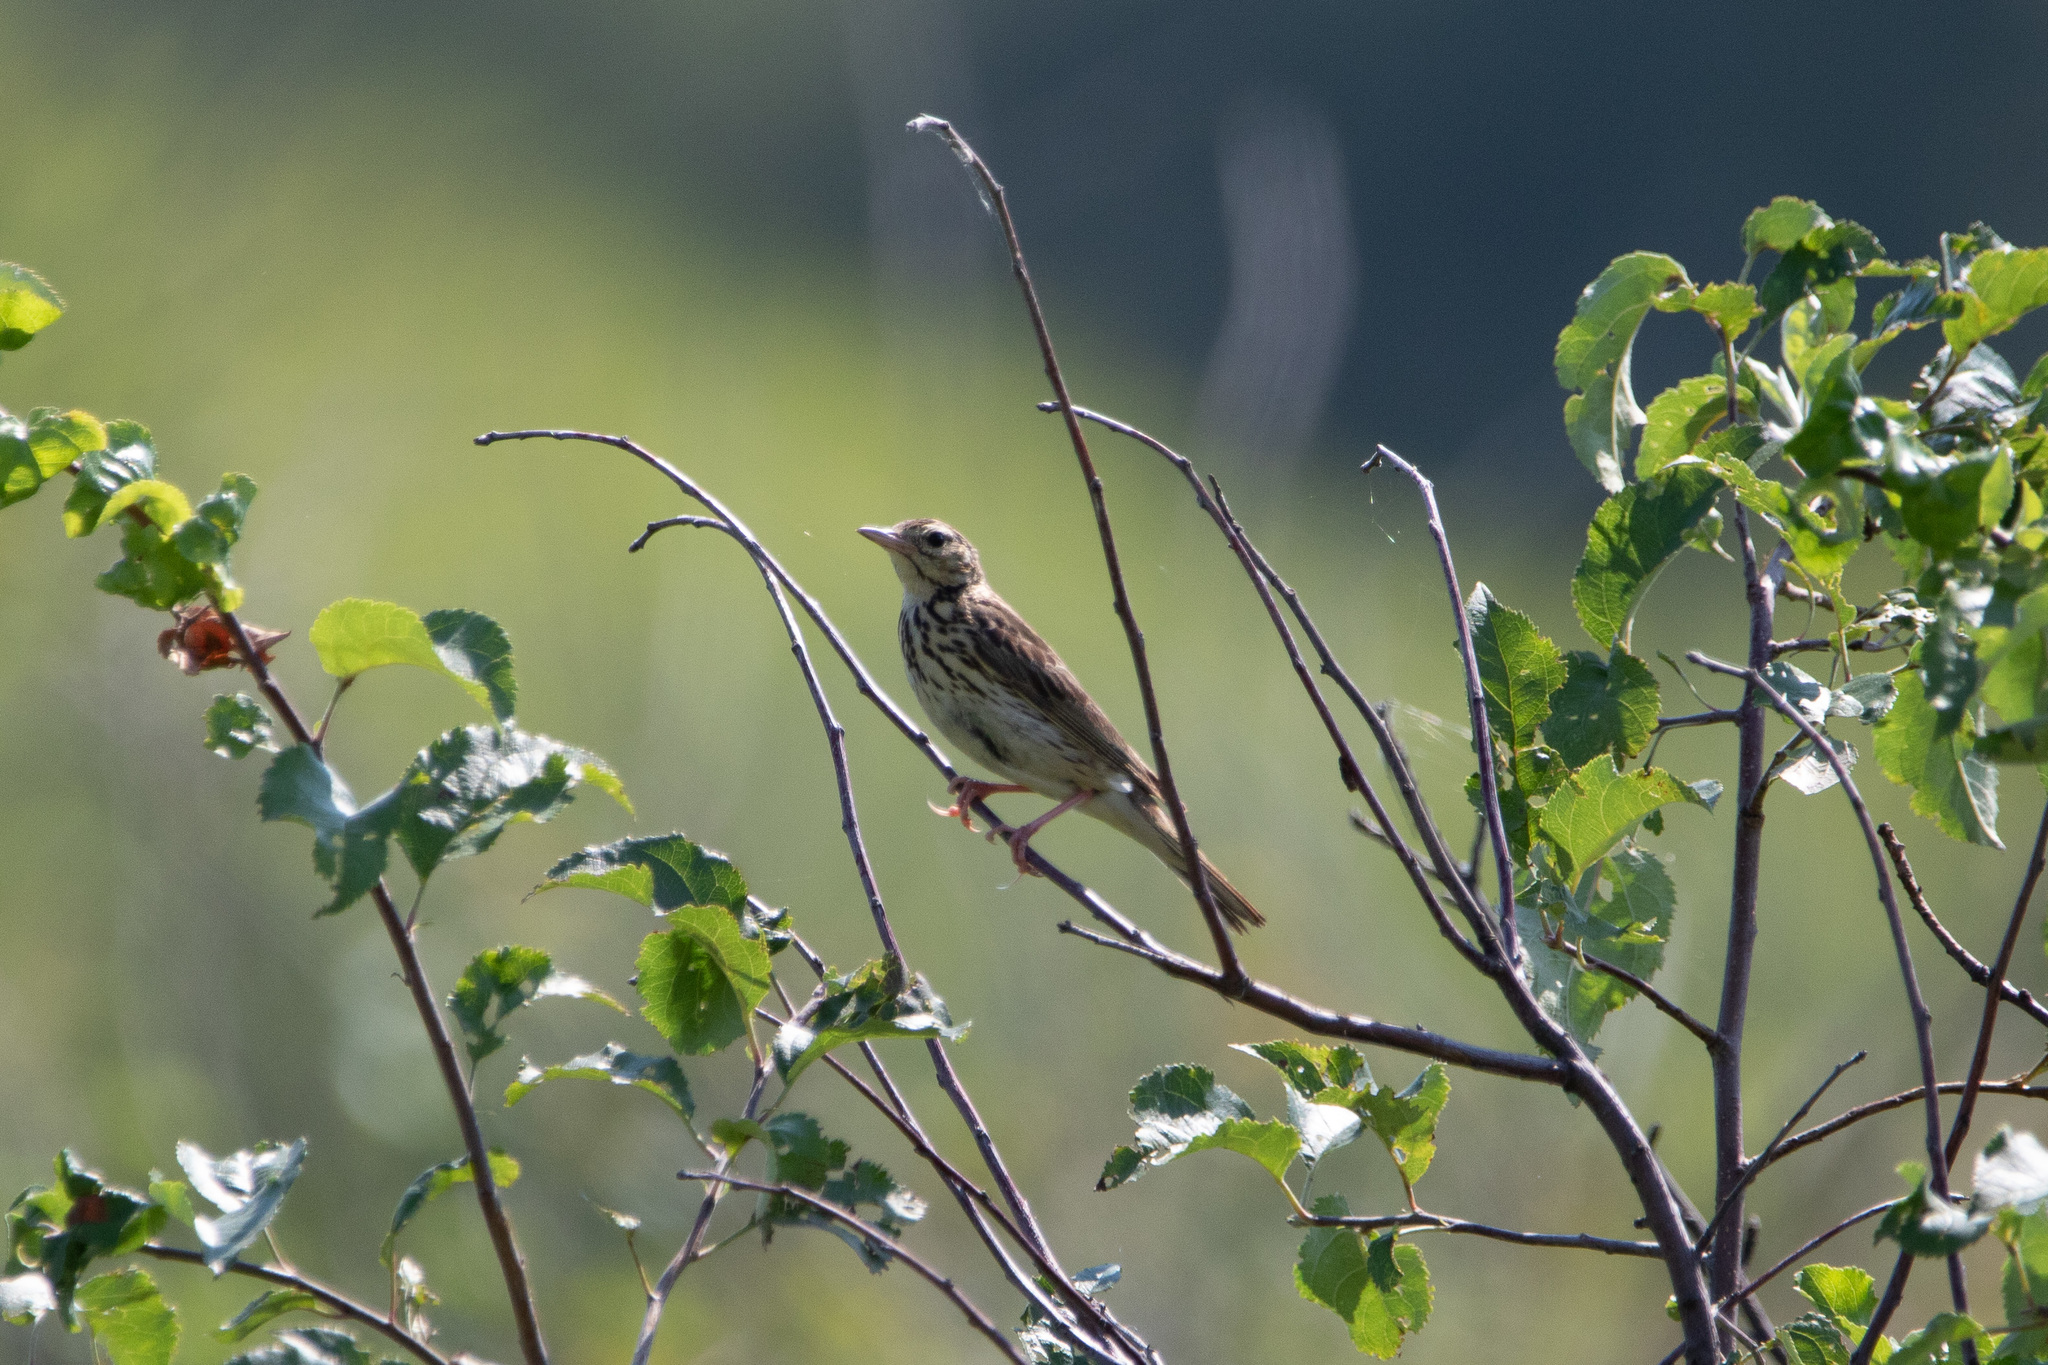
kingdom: Animalia
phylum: Chordata
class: Aves
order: Passeriformes
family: Motacillidae
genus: Anthus
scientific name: Anthus trivialis
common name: Tree pipit
